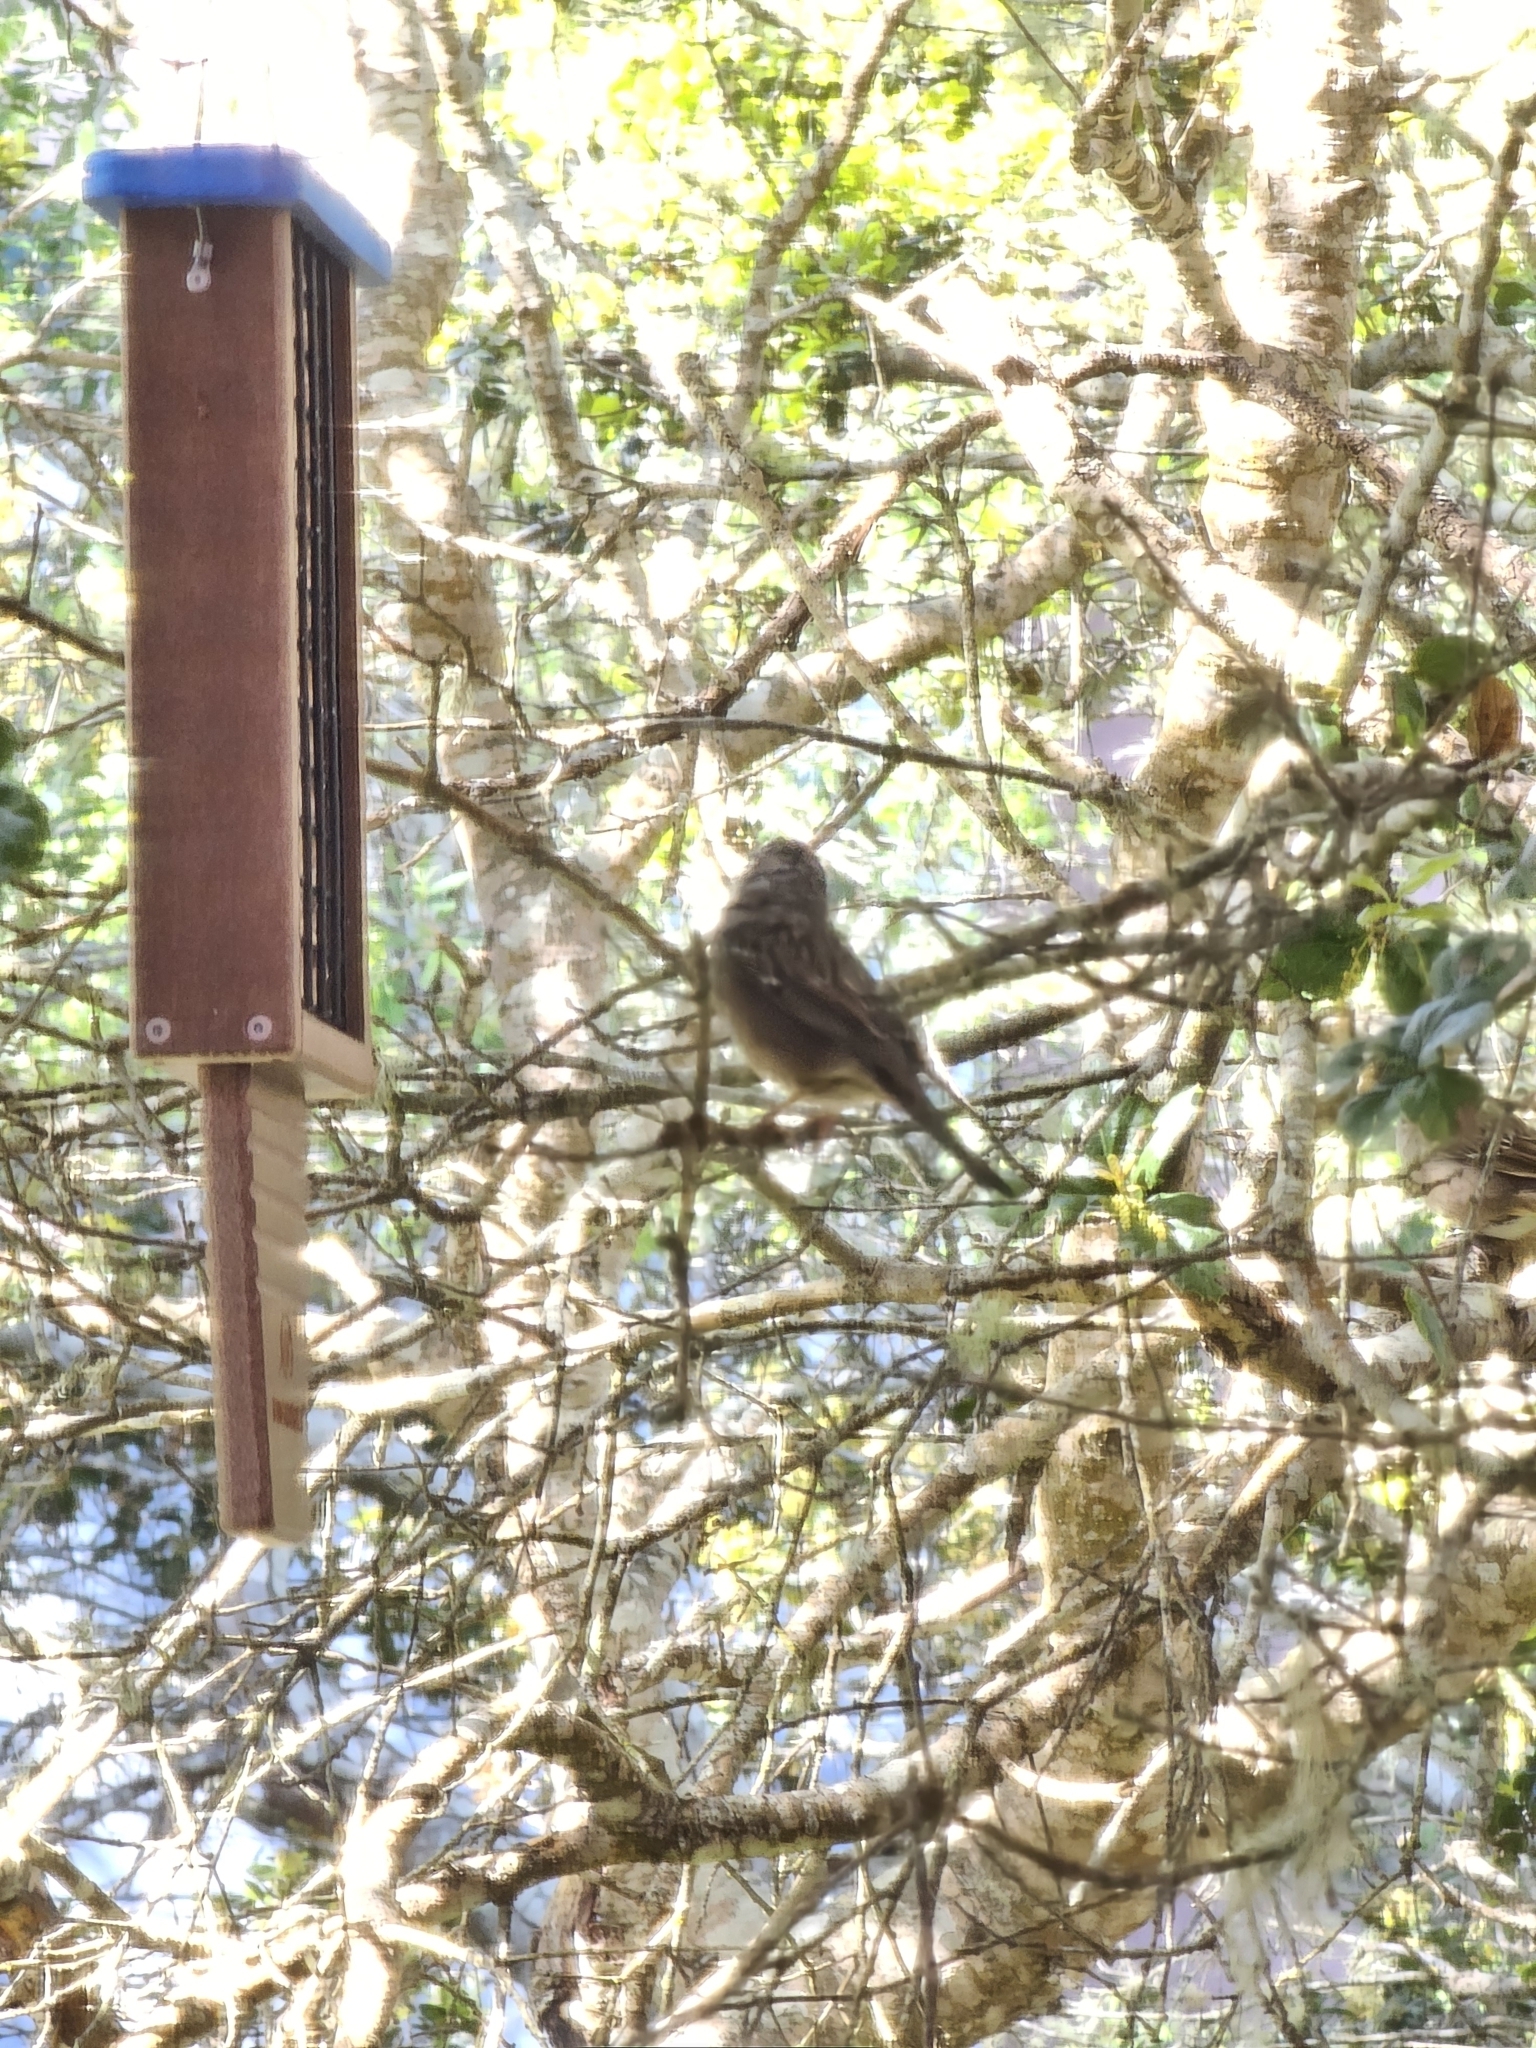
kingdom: Animalia
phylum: Chordata
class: Aves
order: Passeriformes
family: Passerellidae
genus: Zonotrichia
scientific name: Zonotrichia atricapilla
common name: Golden-crowned sparrow
